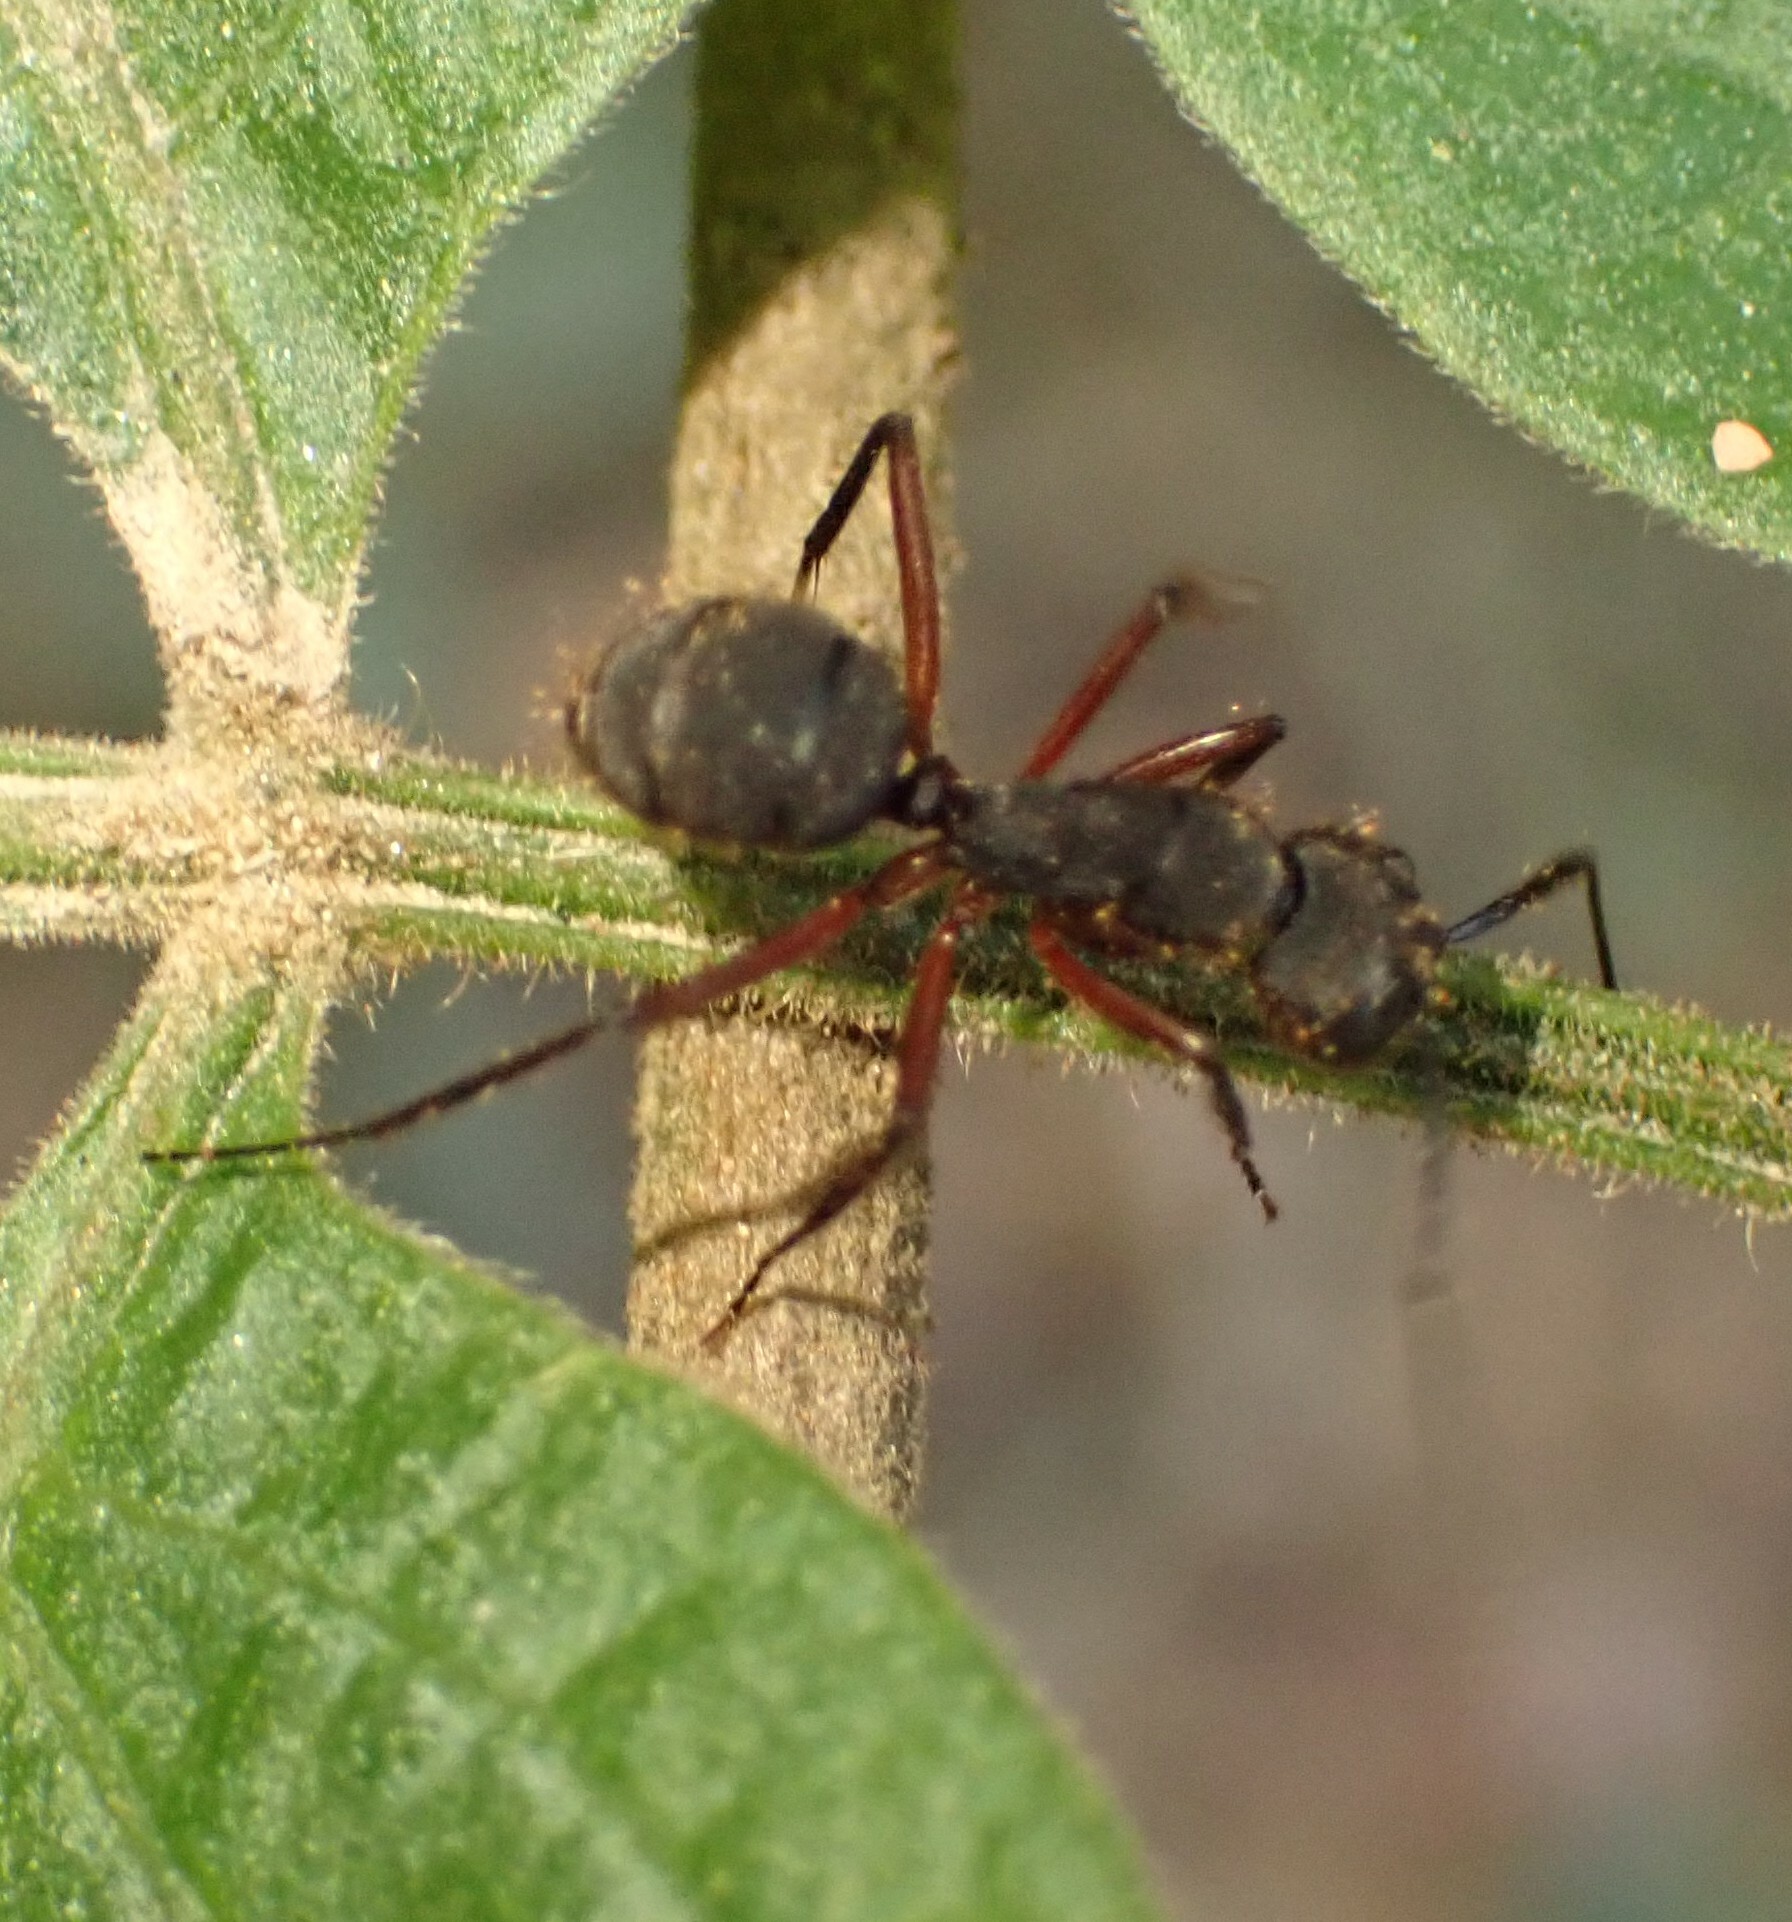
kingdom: Animalia
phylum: Arthropoda
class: Insecta
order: Hymenoptera
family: Formicidae
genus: Camponotus
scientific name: Camponotus rufipes
